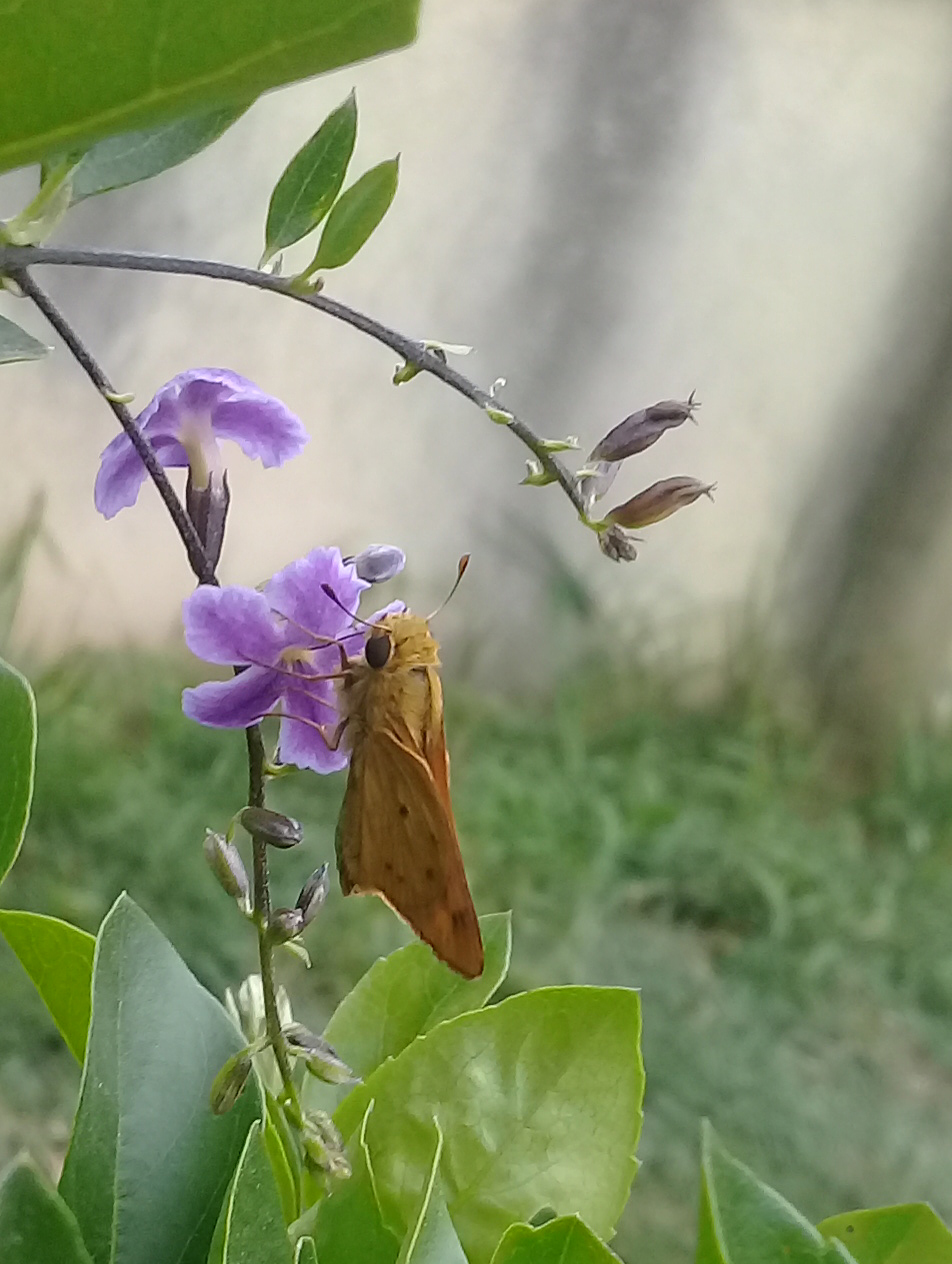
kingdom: Animalia
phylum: Arthropoda
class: Insecta
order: Lepidoptera
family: Hesperiidae
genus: Hylephila
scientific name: Hylephila phyleus
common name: Fiery skipper
